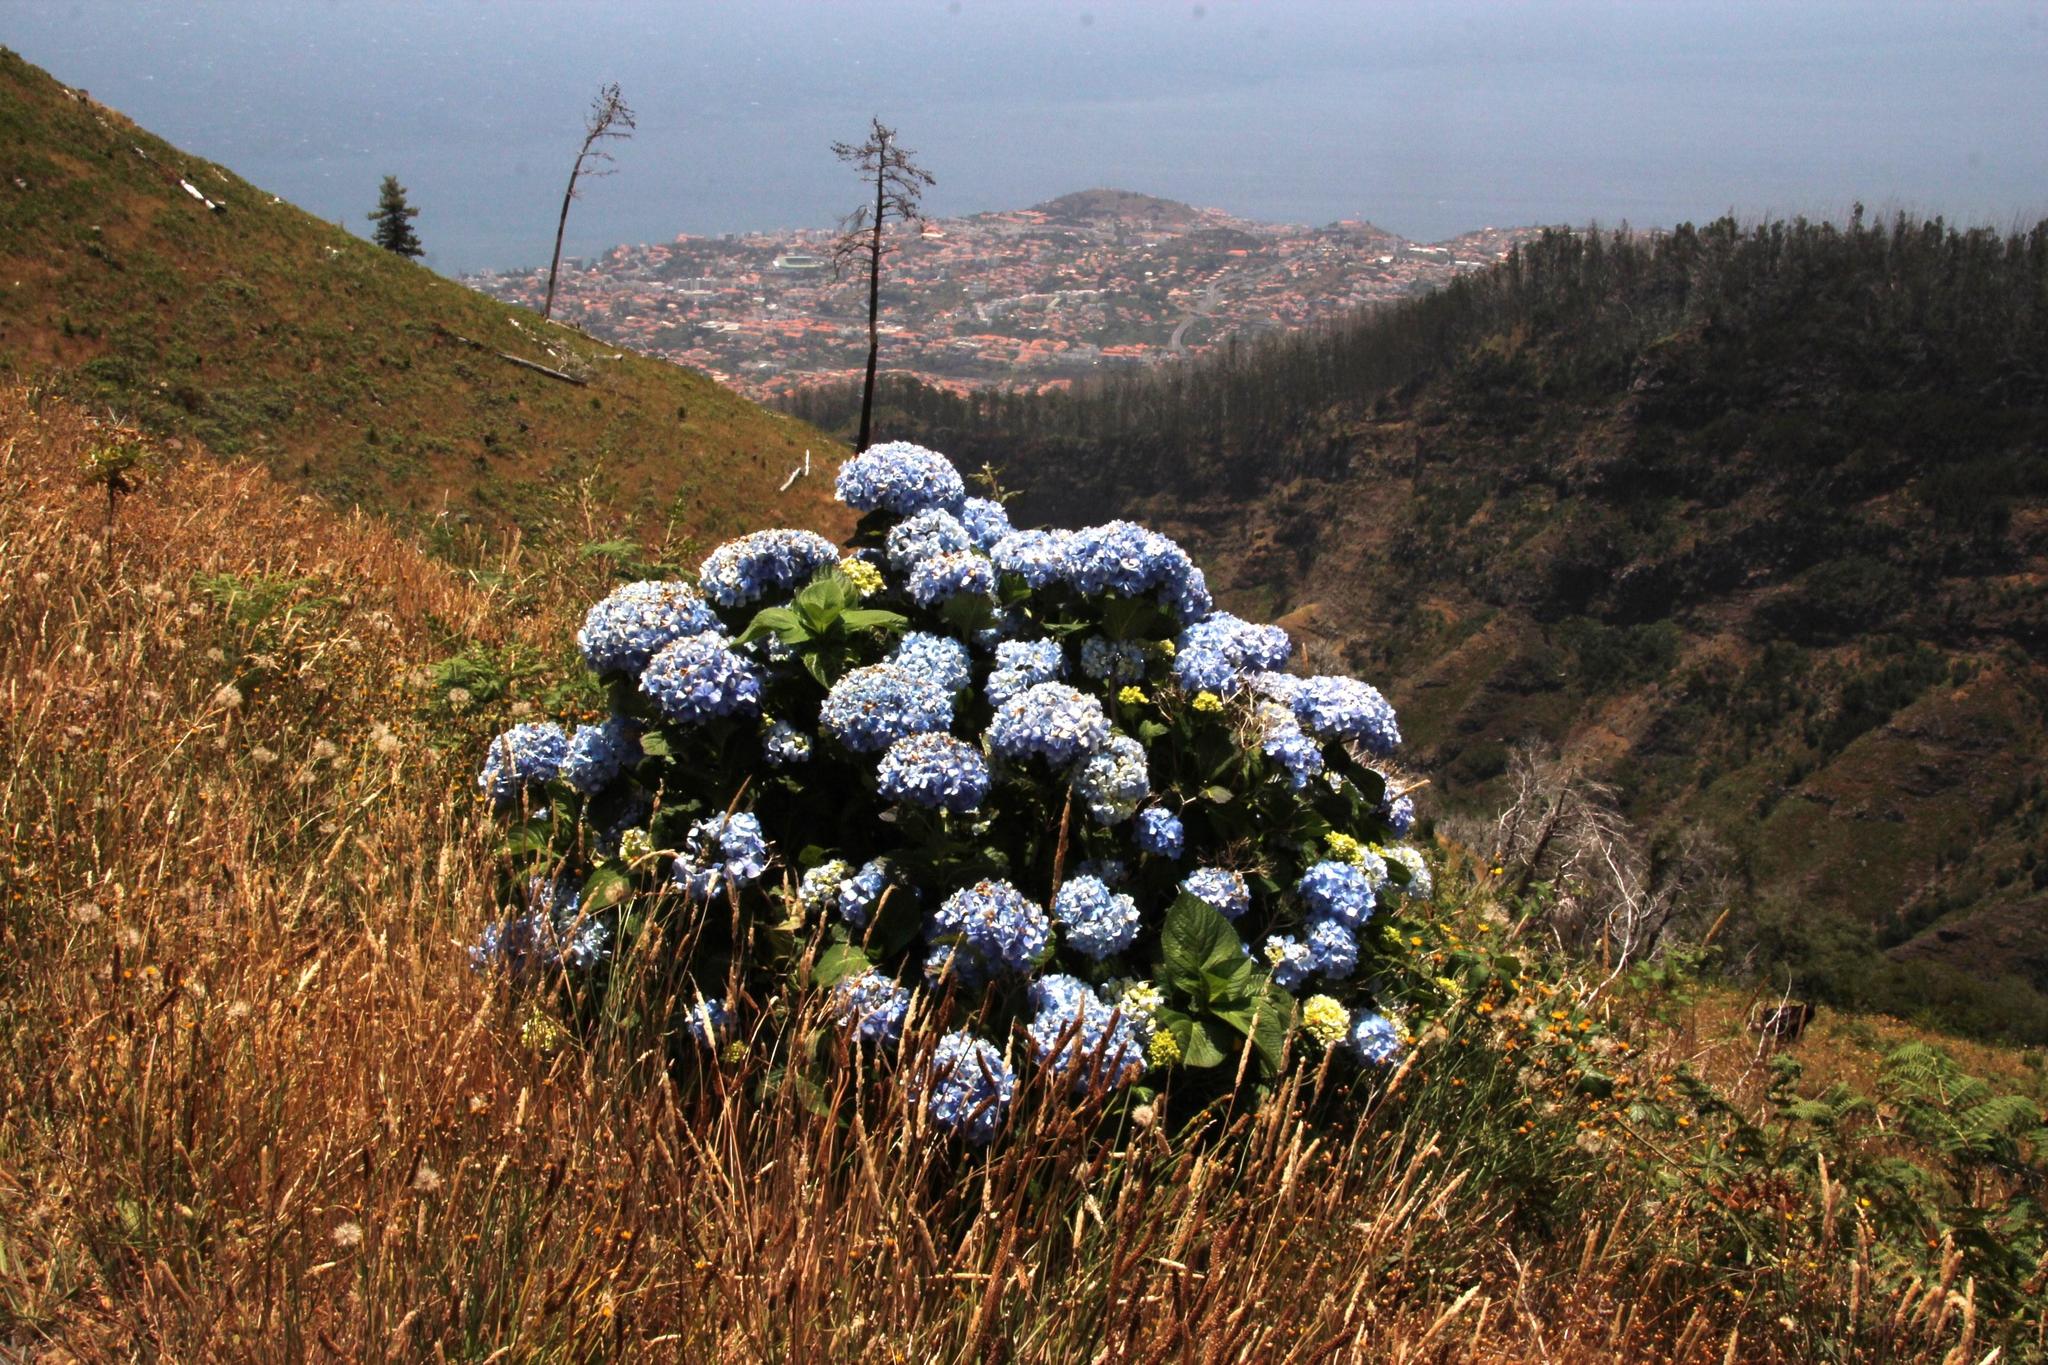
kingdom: Plantae
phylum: Tracheophyta
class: Magnoliopsida
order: Cornales
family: Hydrangeaceae
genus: Hydrangea
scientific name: Hydrangea macrophylla
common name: Hydrangea
